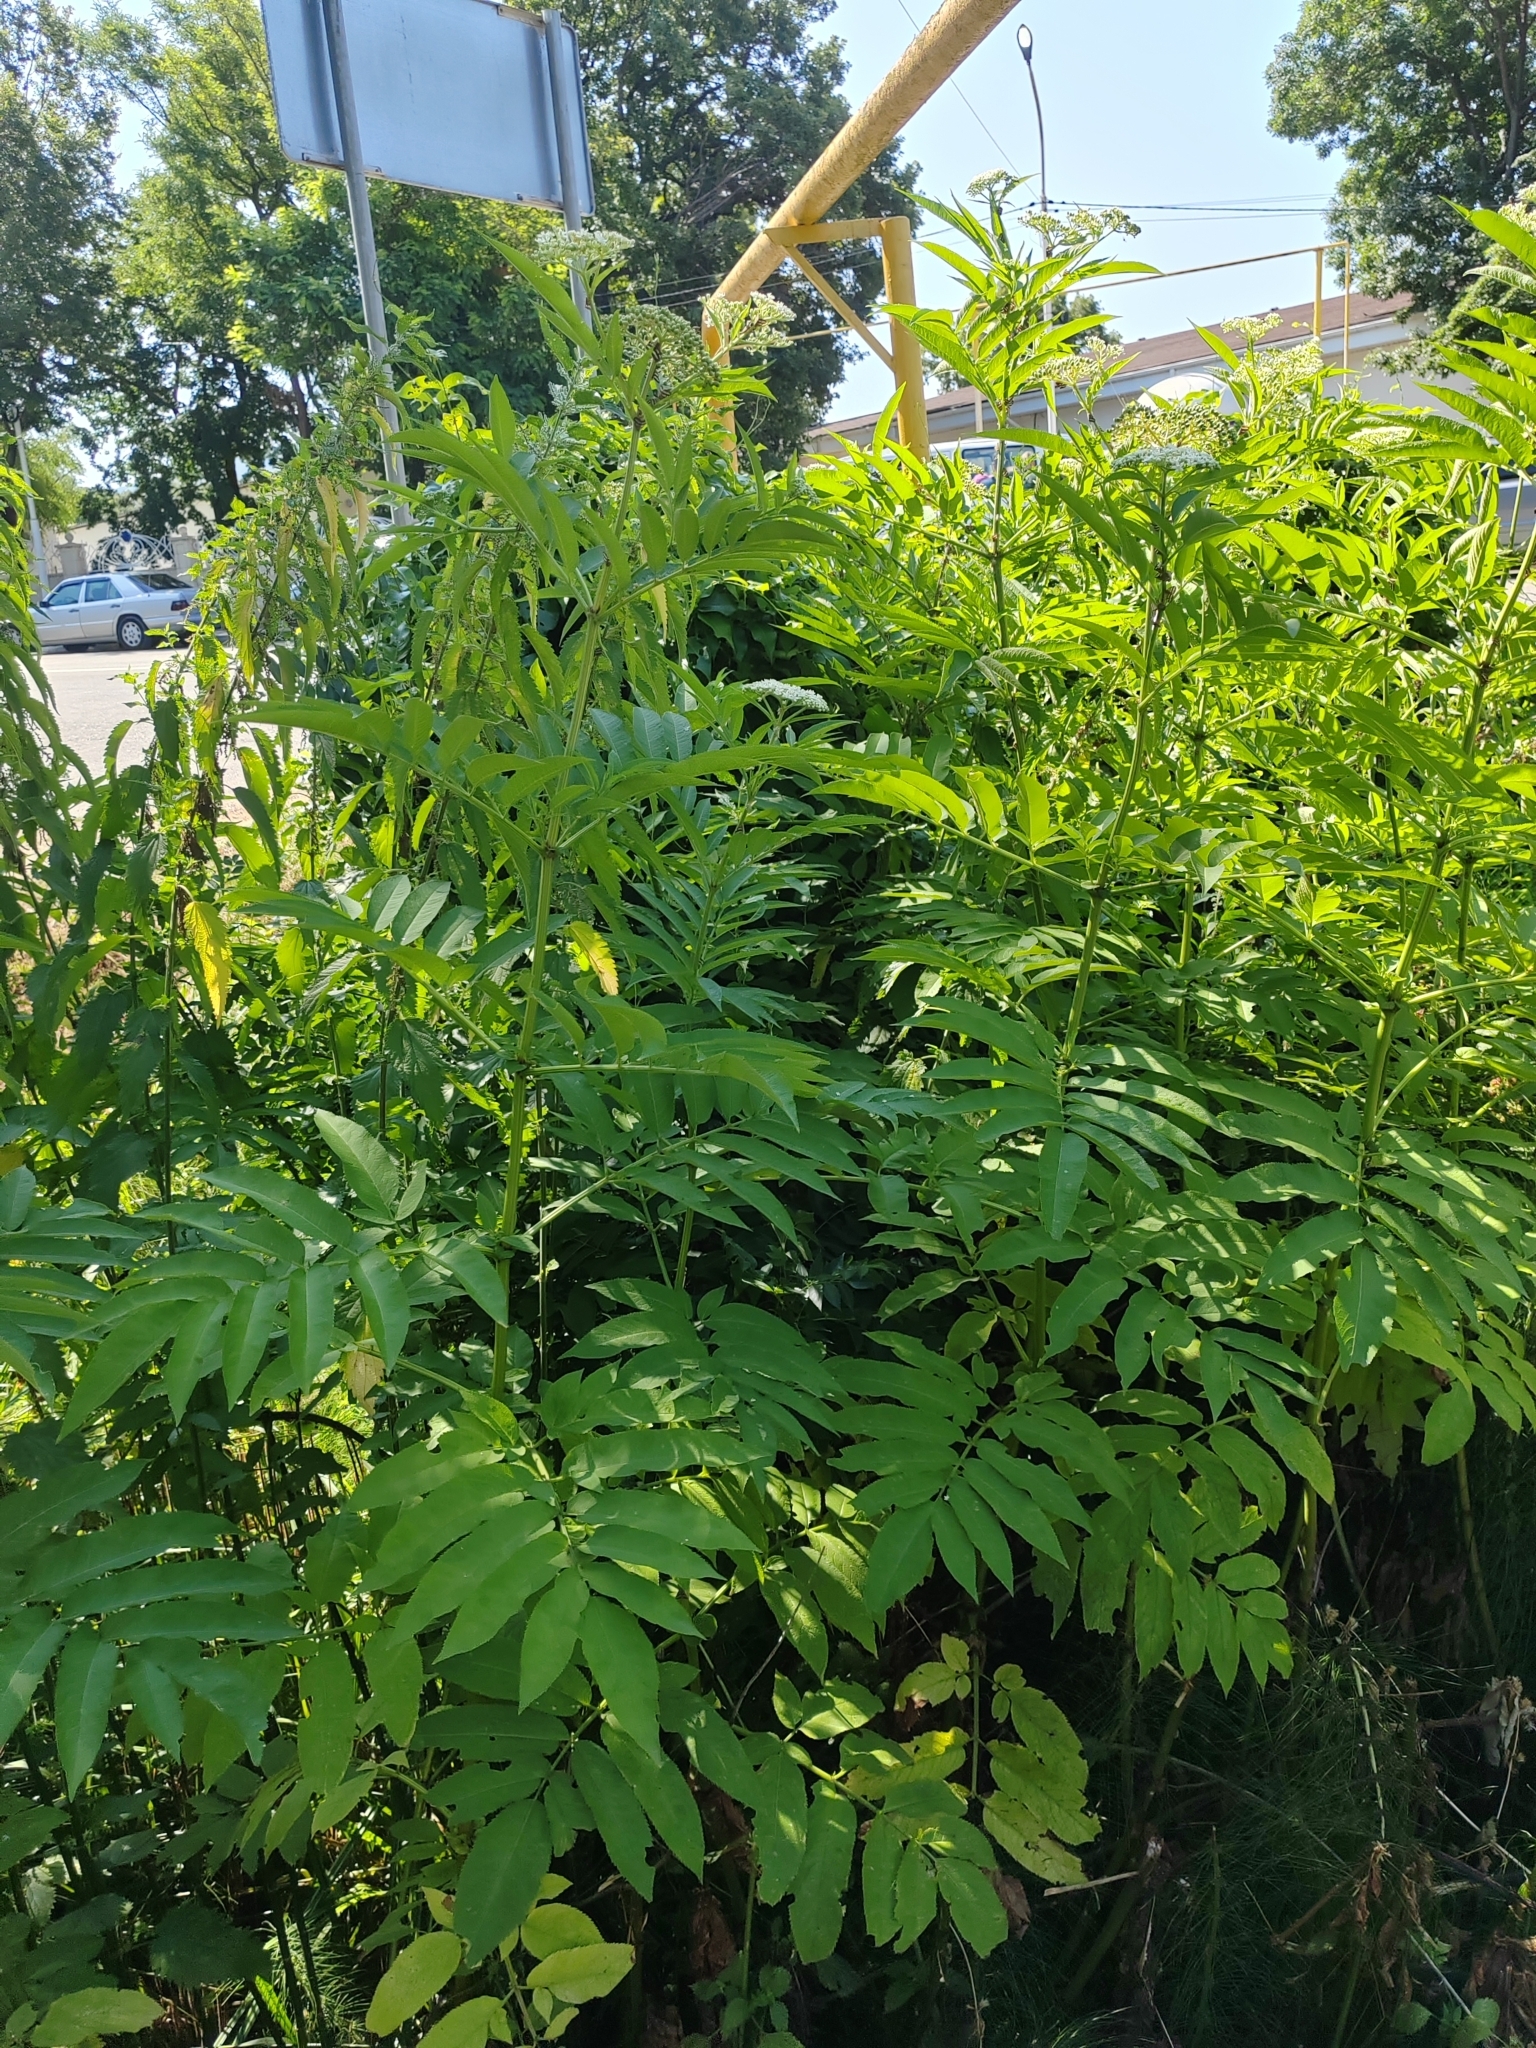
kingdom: Plantae
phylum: Tracheophyta
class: Magnoliopsida
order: Dipsacales
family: Viburnaceae
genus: Sambucus
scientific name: Sambucus ebulus
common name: Dwarf elder
